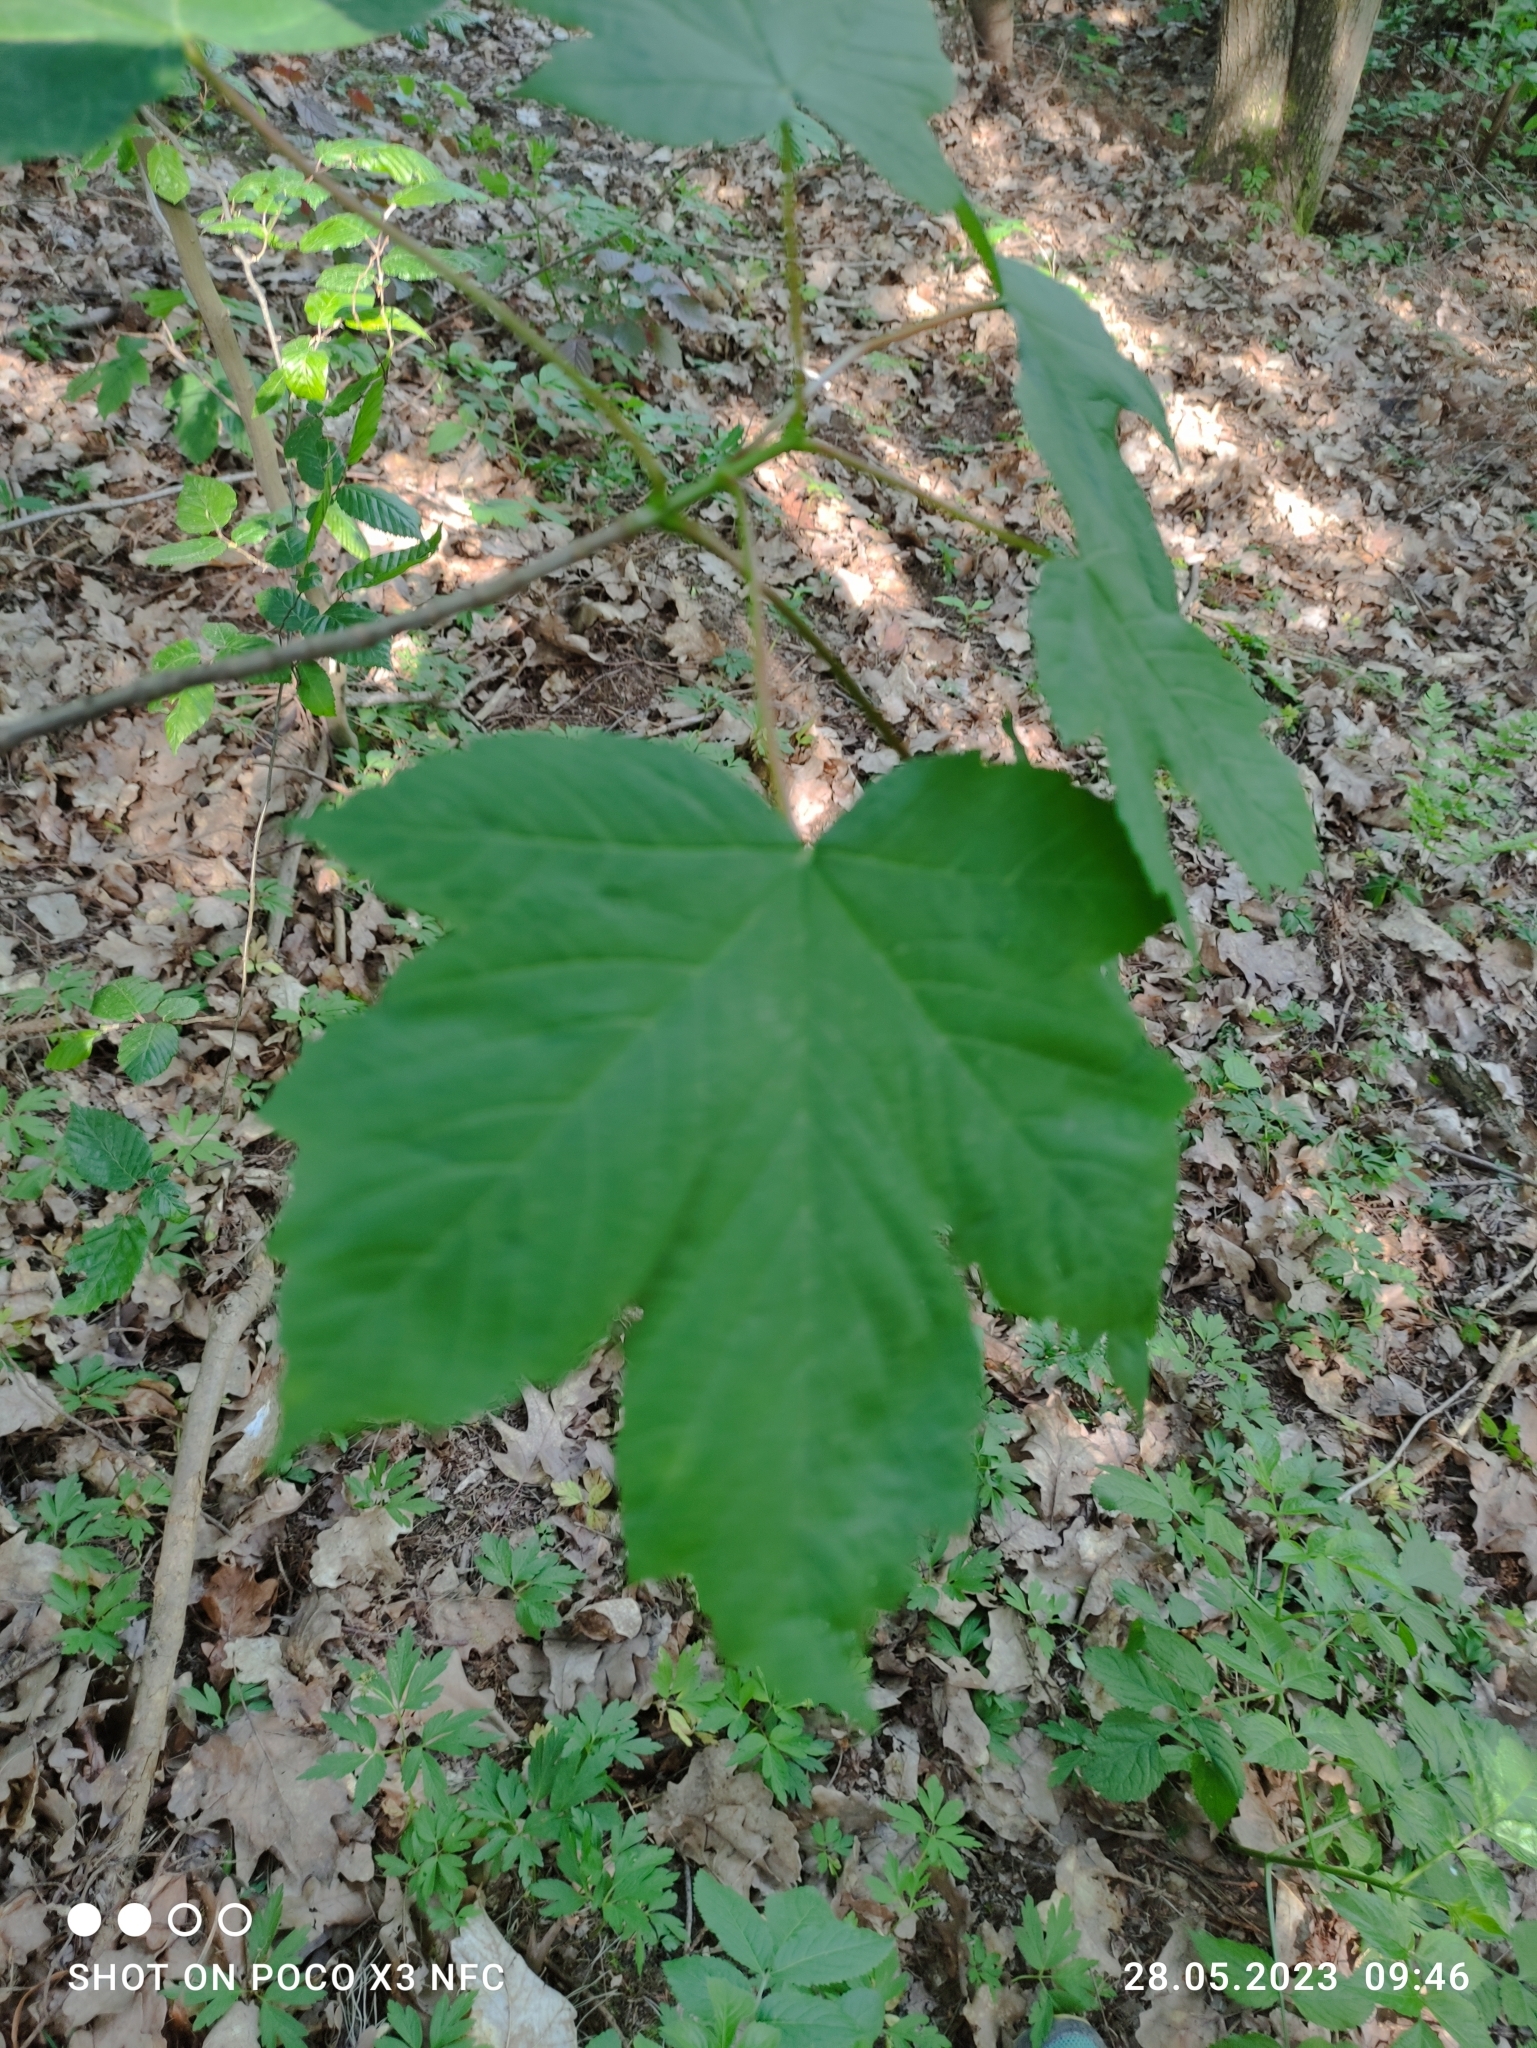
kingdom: Plantae
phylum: Tracheophyta
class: Magnoliopsida
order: Sapindales
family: Sapindaceae
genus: Acer
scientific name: Acer pseudoplatanus
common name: Sycamore
